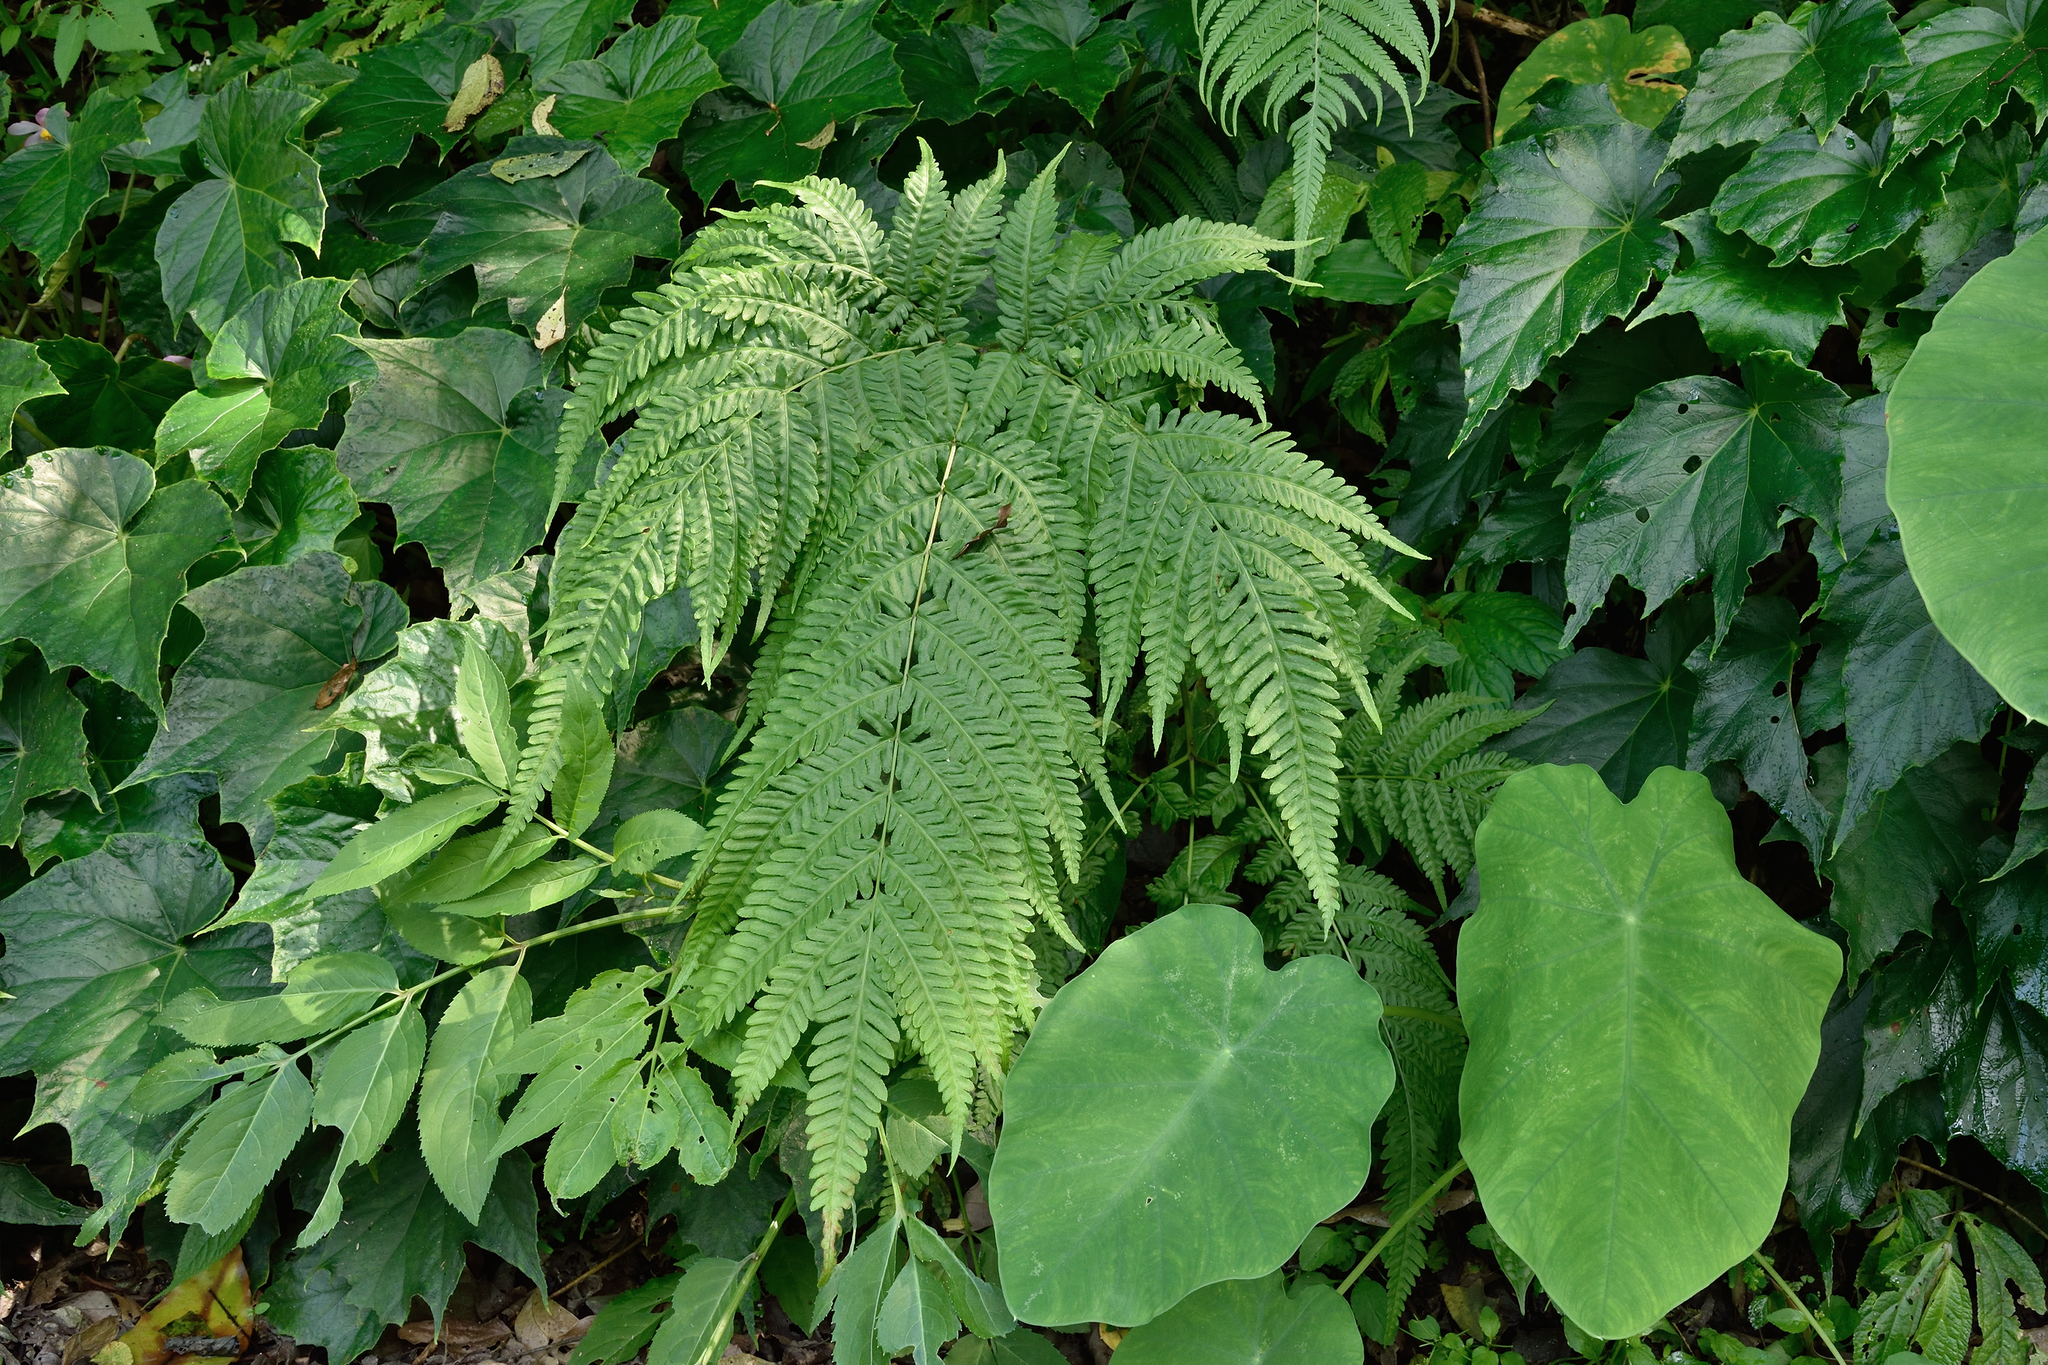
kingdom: Plantae
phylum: Tracheophyta
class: Polypodiopsida
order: Polypodiales
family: Pteridaceae
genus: Pteris
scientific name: Pteris wallichiana
